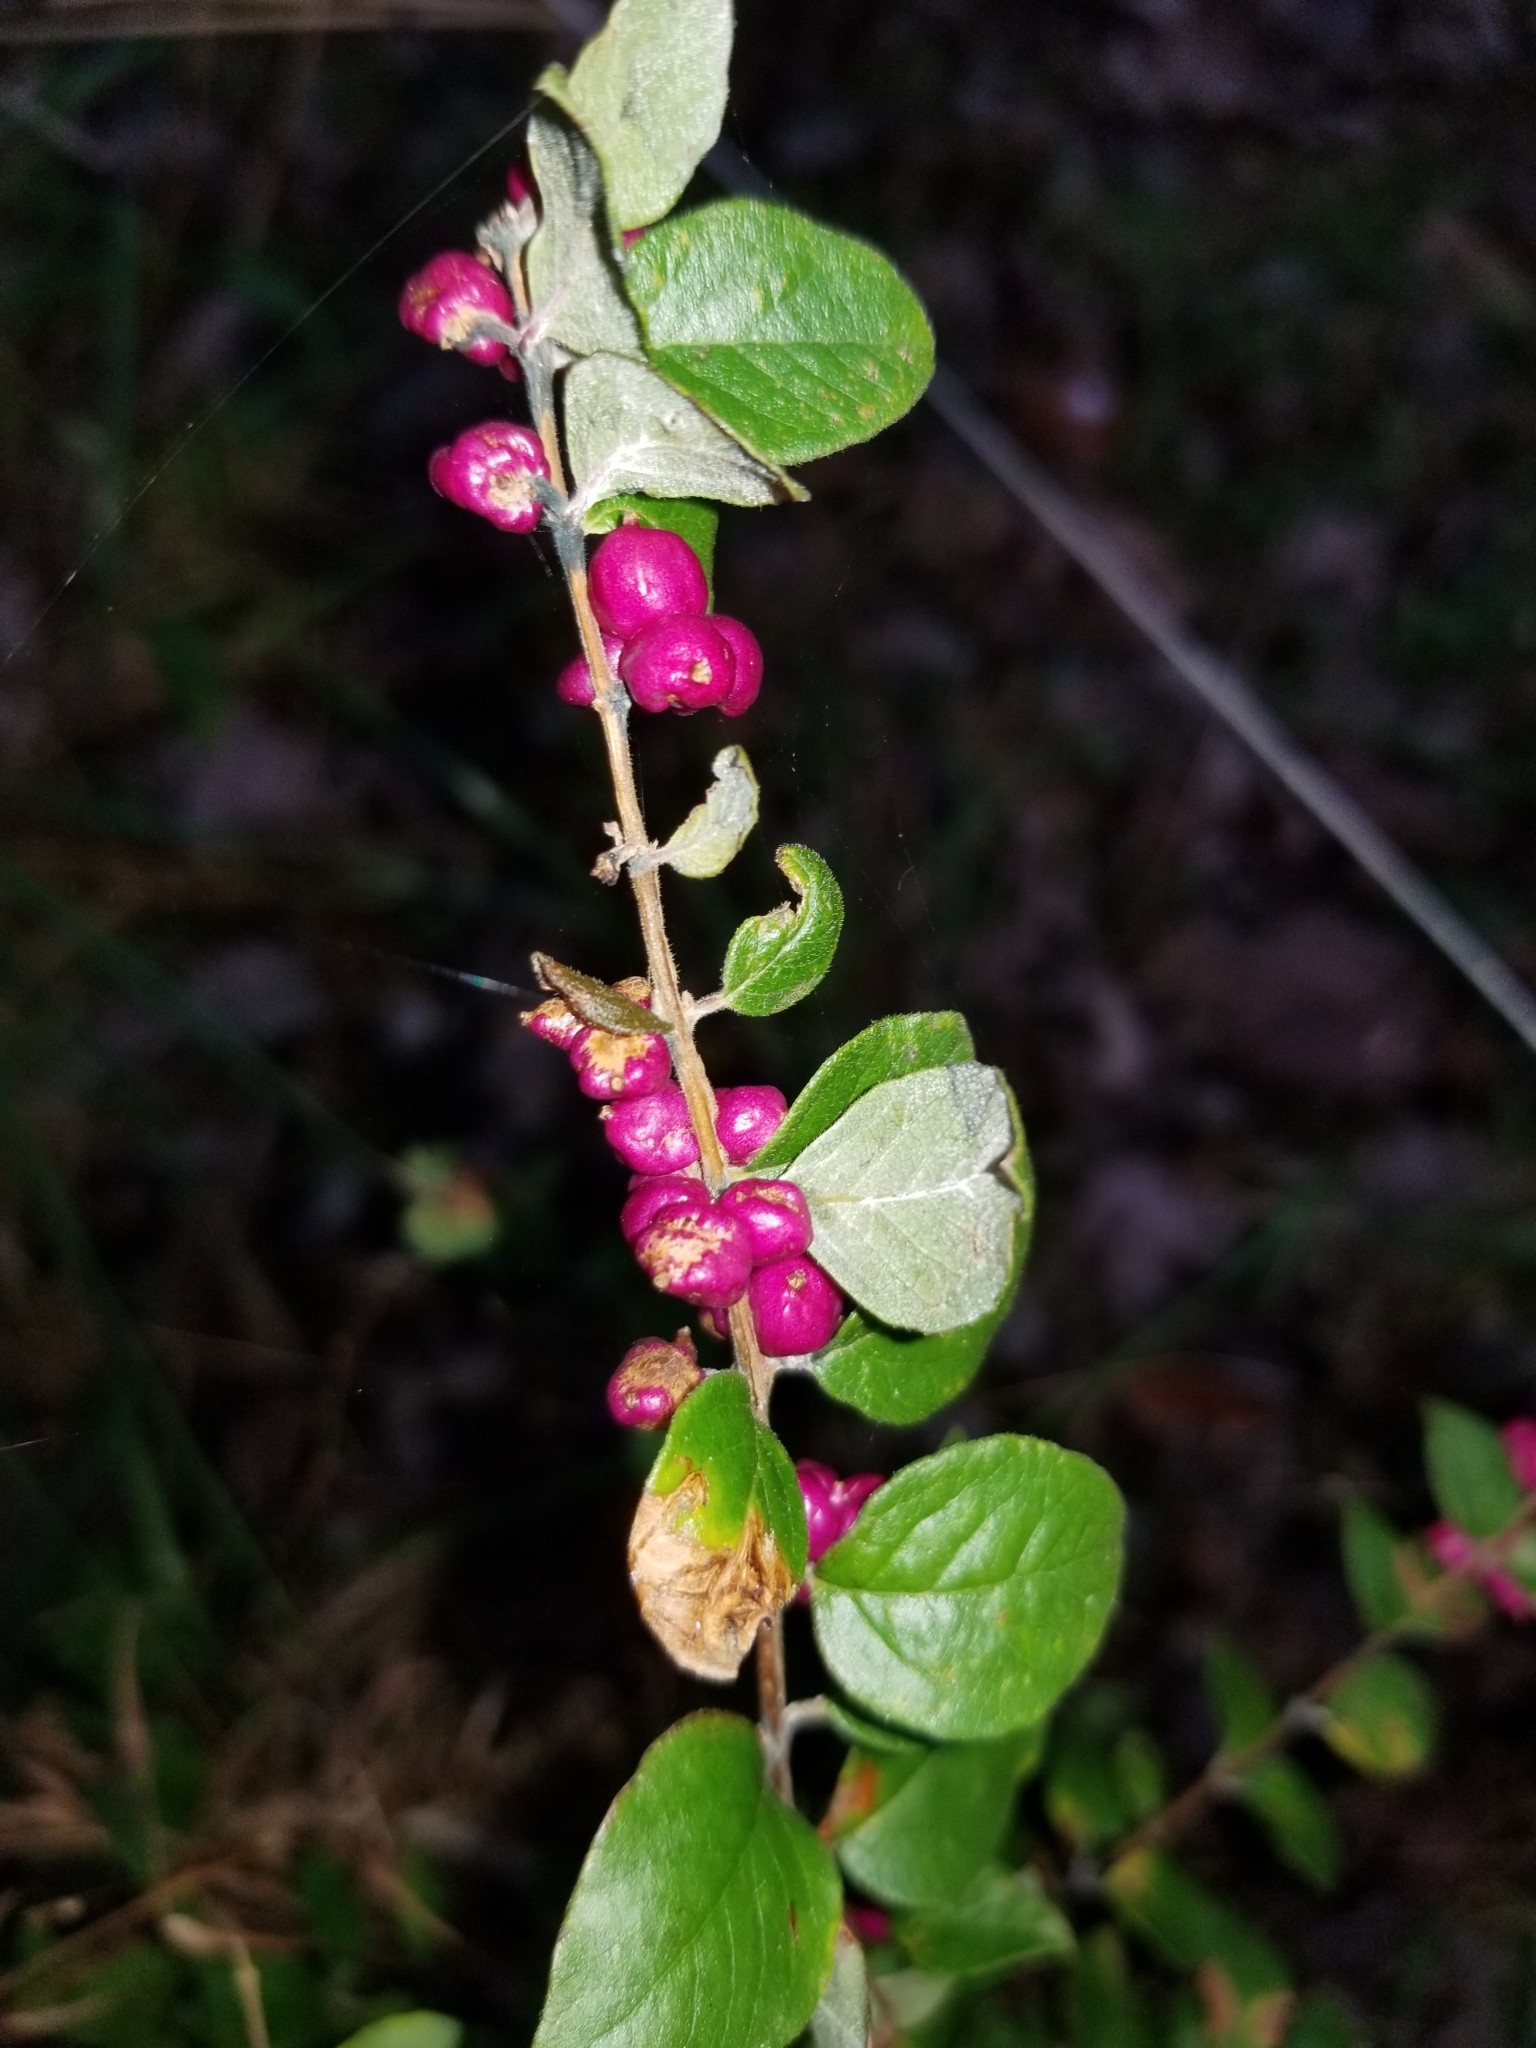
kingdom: Plantae
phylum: Tracheophyta
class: Magnoliopsida
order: Dipsacales
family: Caprifoliaceae
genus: Symphoricarpos
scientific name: Symphoricarpos orbiculatus
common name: Coralberry
